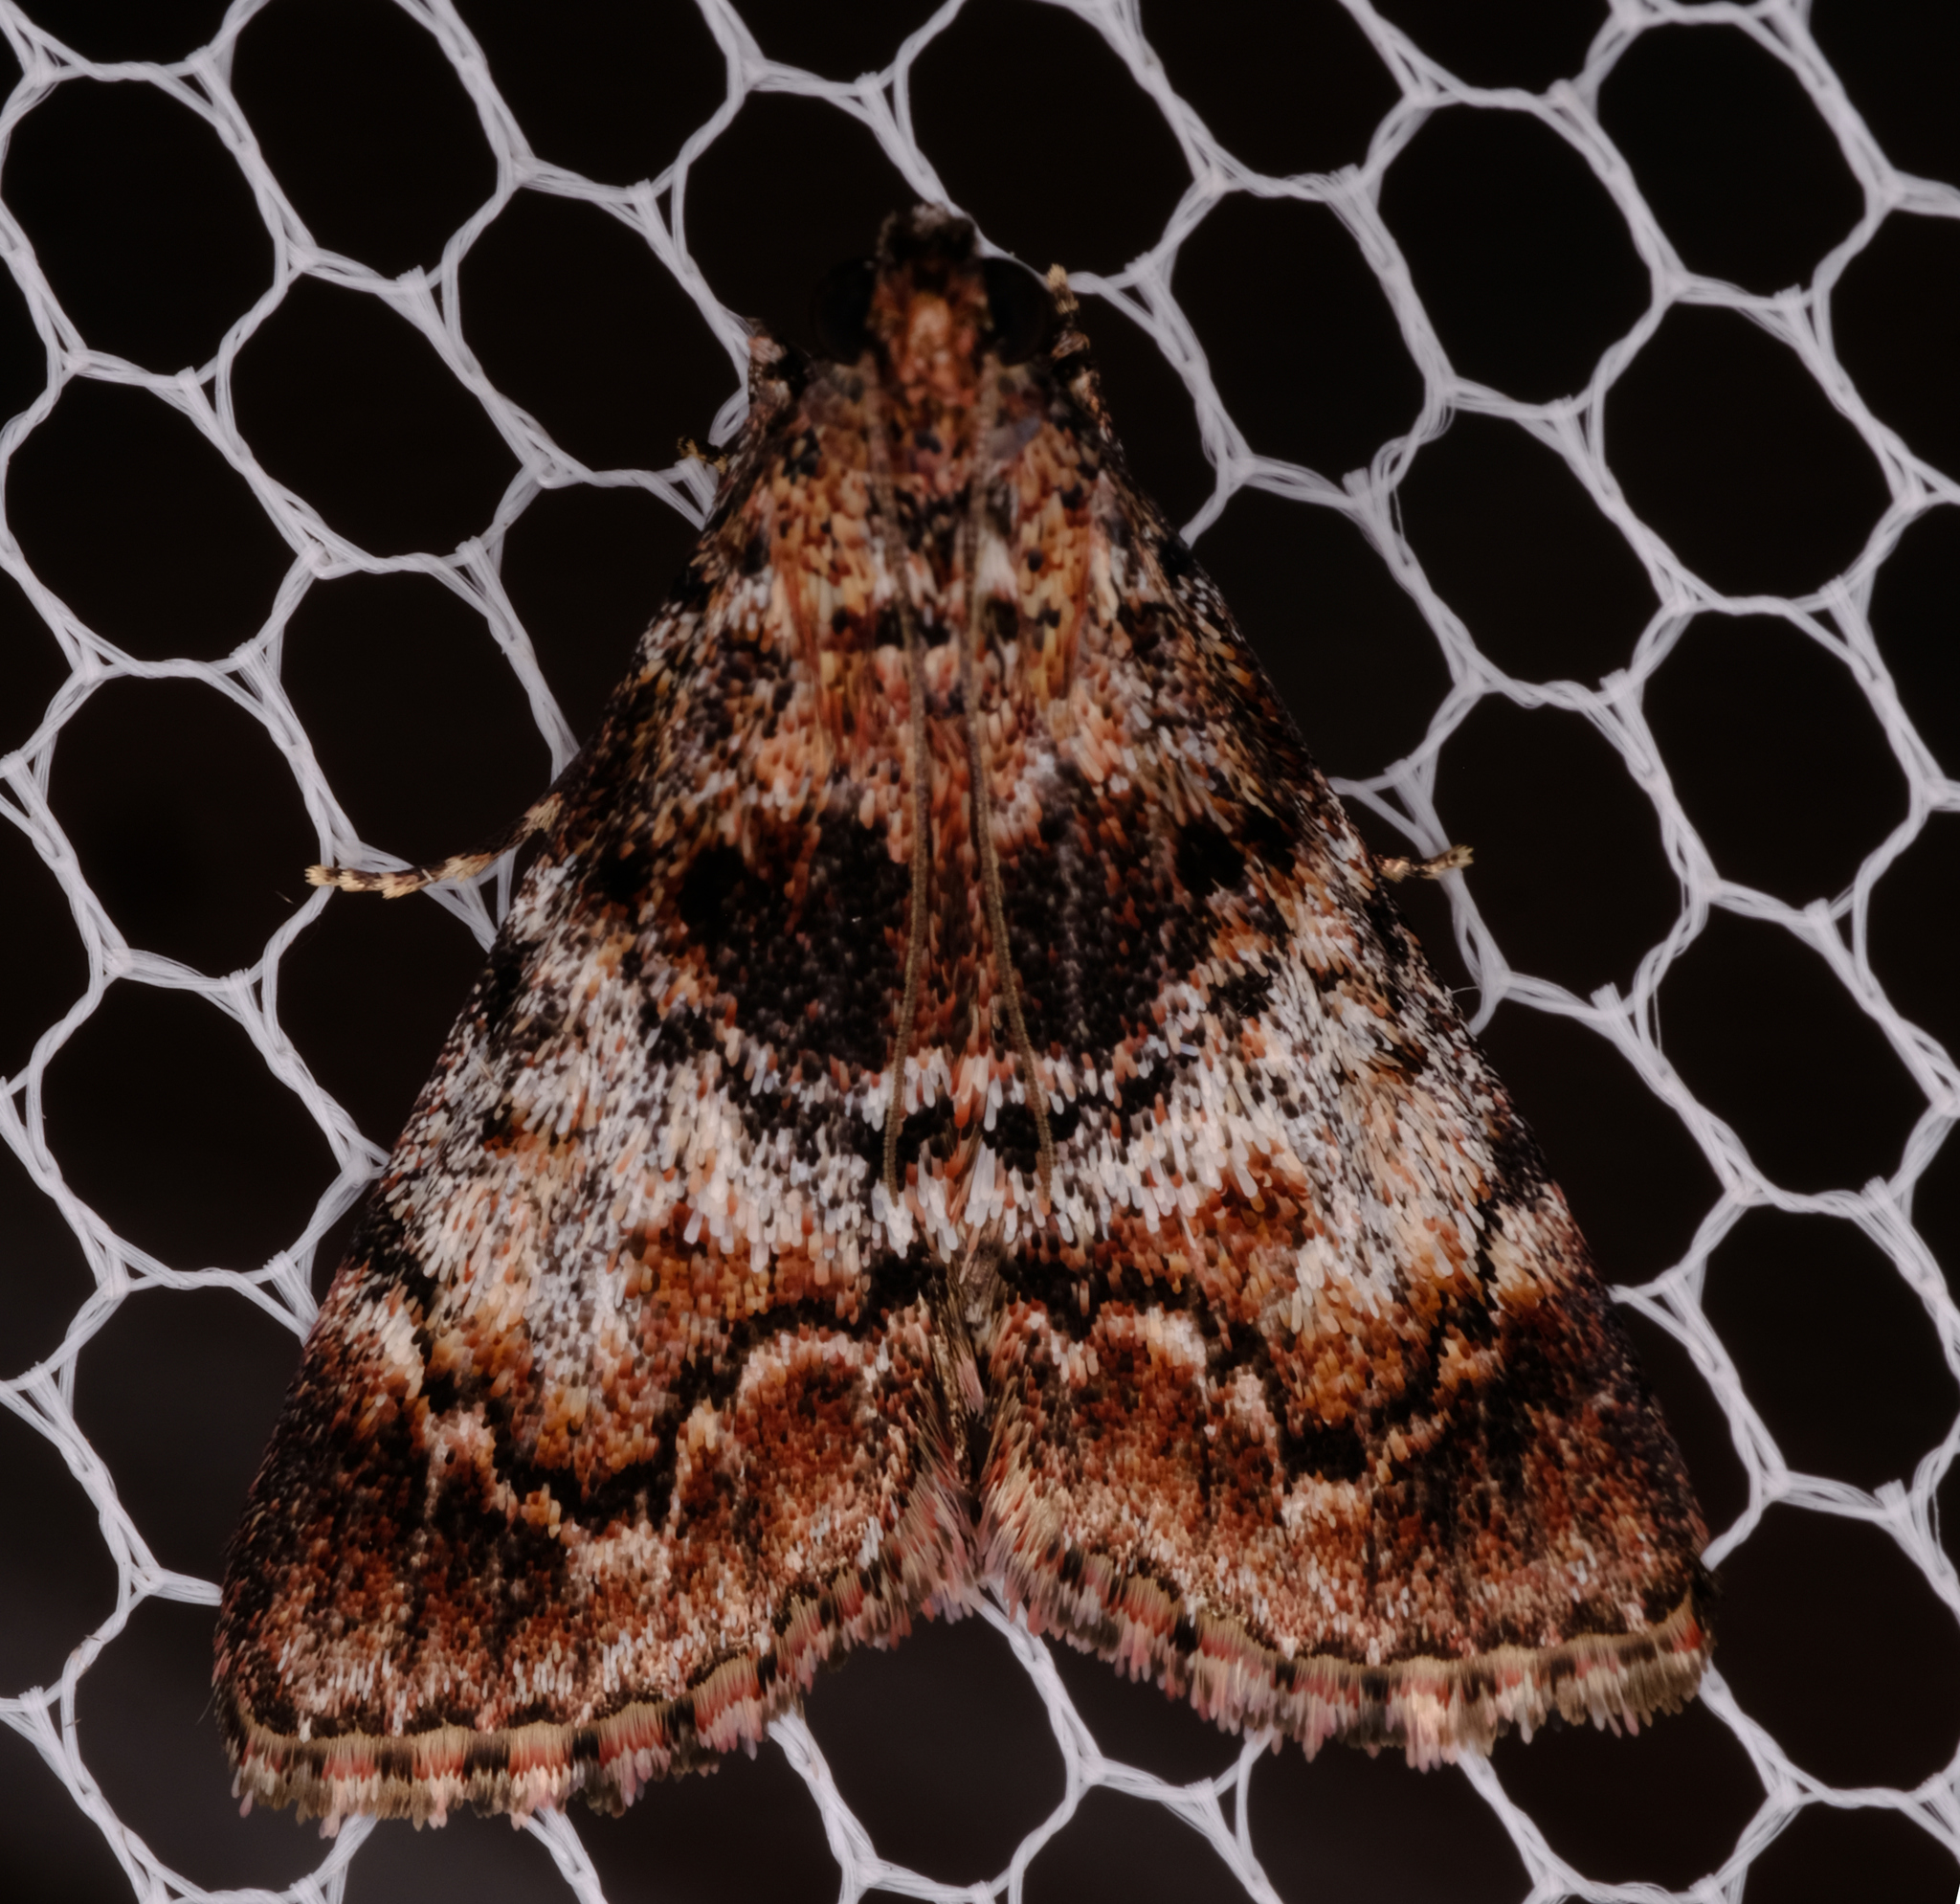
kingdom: Animalia
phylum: Arthropoda
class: Insecta
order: Lepidoptera
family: Pyralidae
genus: Orthaga
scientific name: Orthaga thyrisalis
